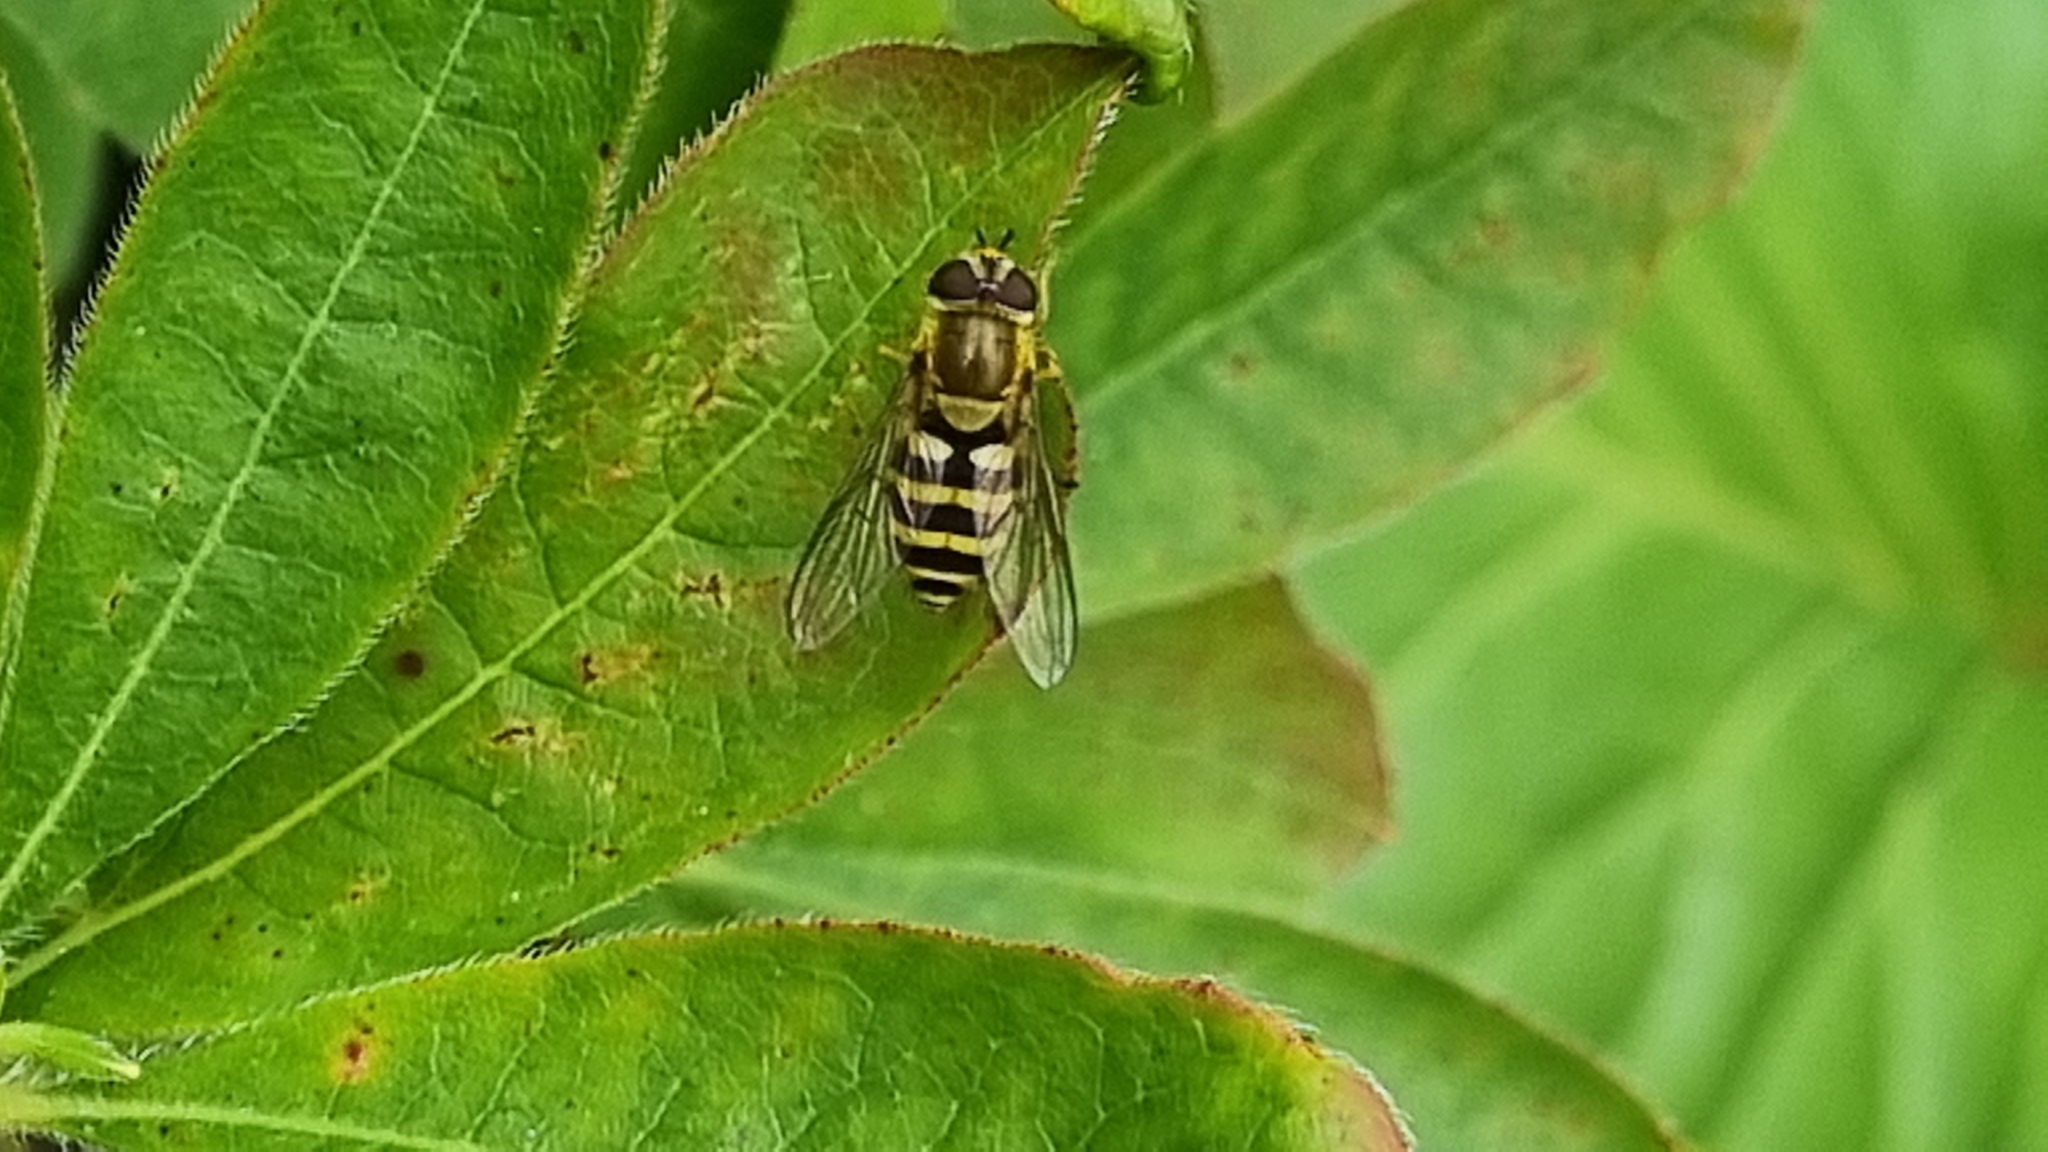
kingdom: Animalia
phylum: Arthropoda
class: Insecta
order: Diptera
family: Syrphidae
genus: Syrphus
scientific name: Syrphus
